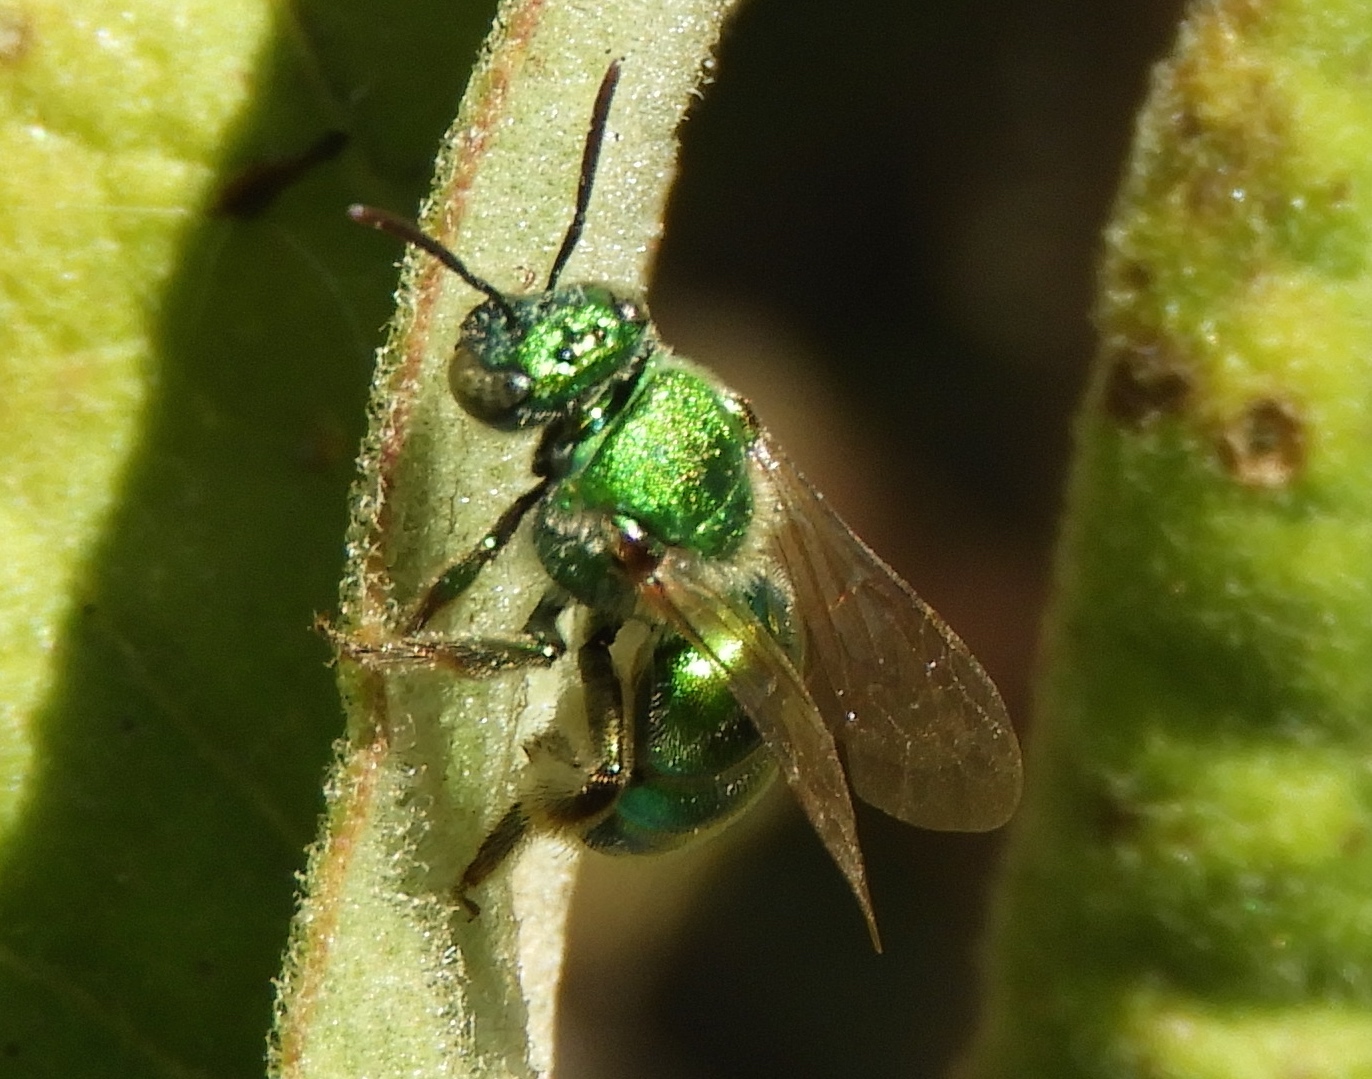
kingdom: Animalia
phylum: Arthropoda
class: Insecta
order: Hymenoptera
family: Halictidae
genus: Augochloropsis
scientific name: Augochloropsis
